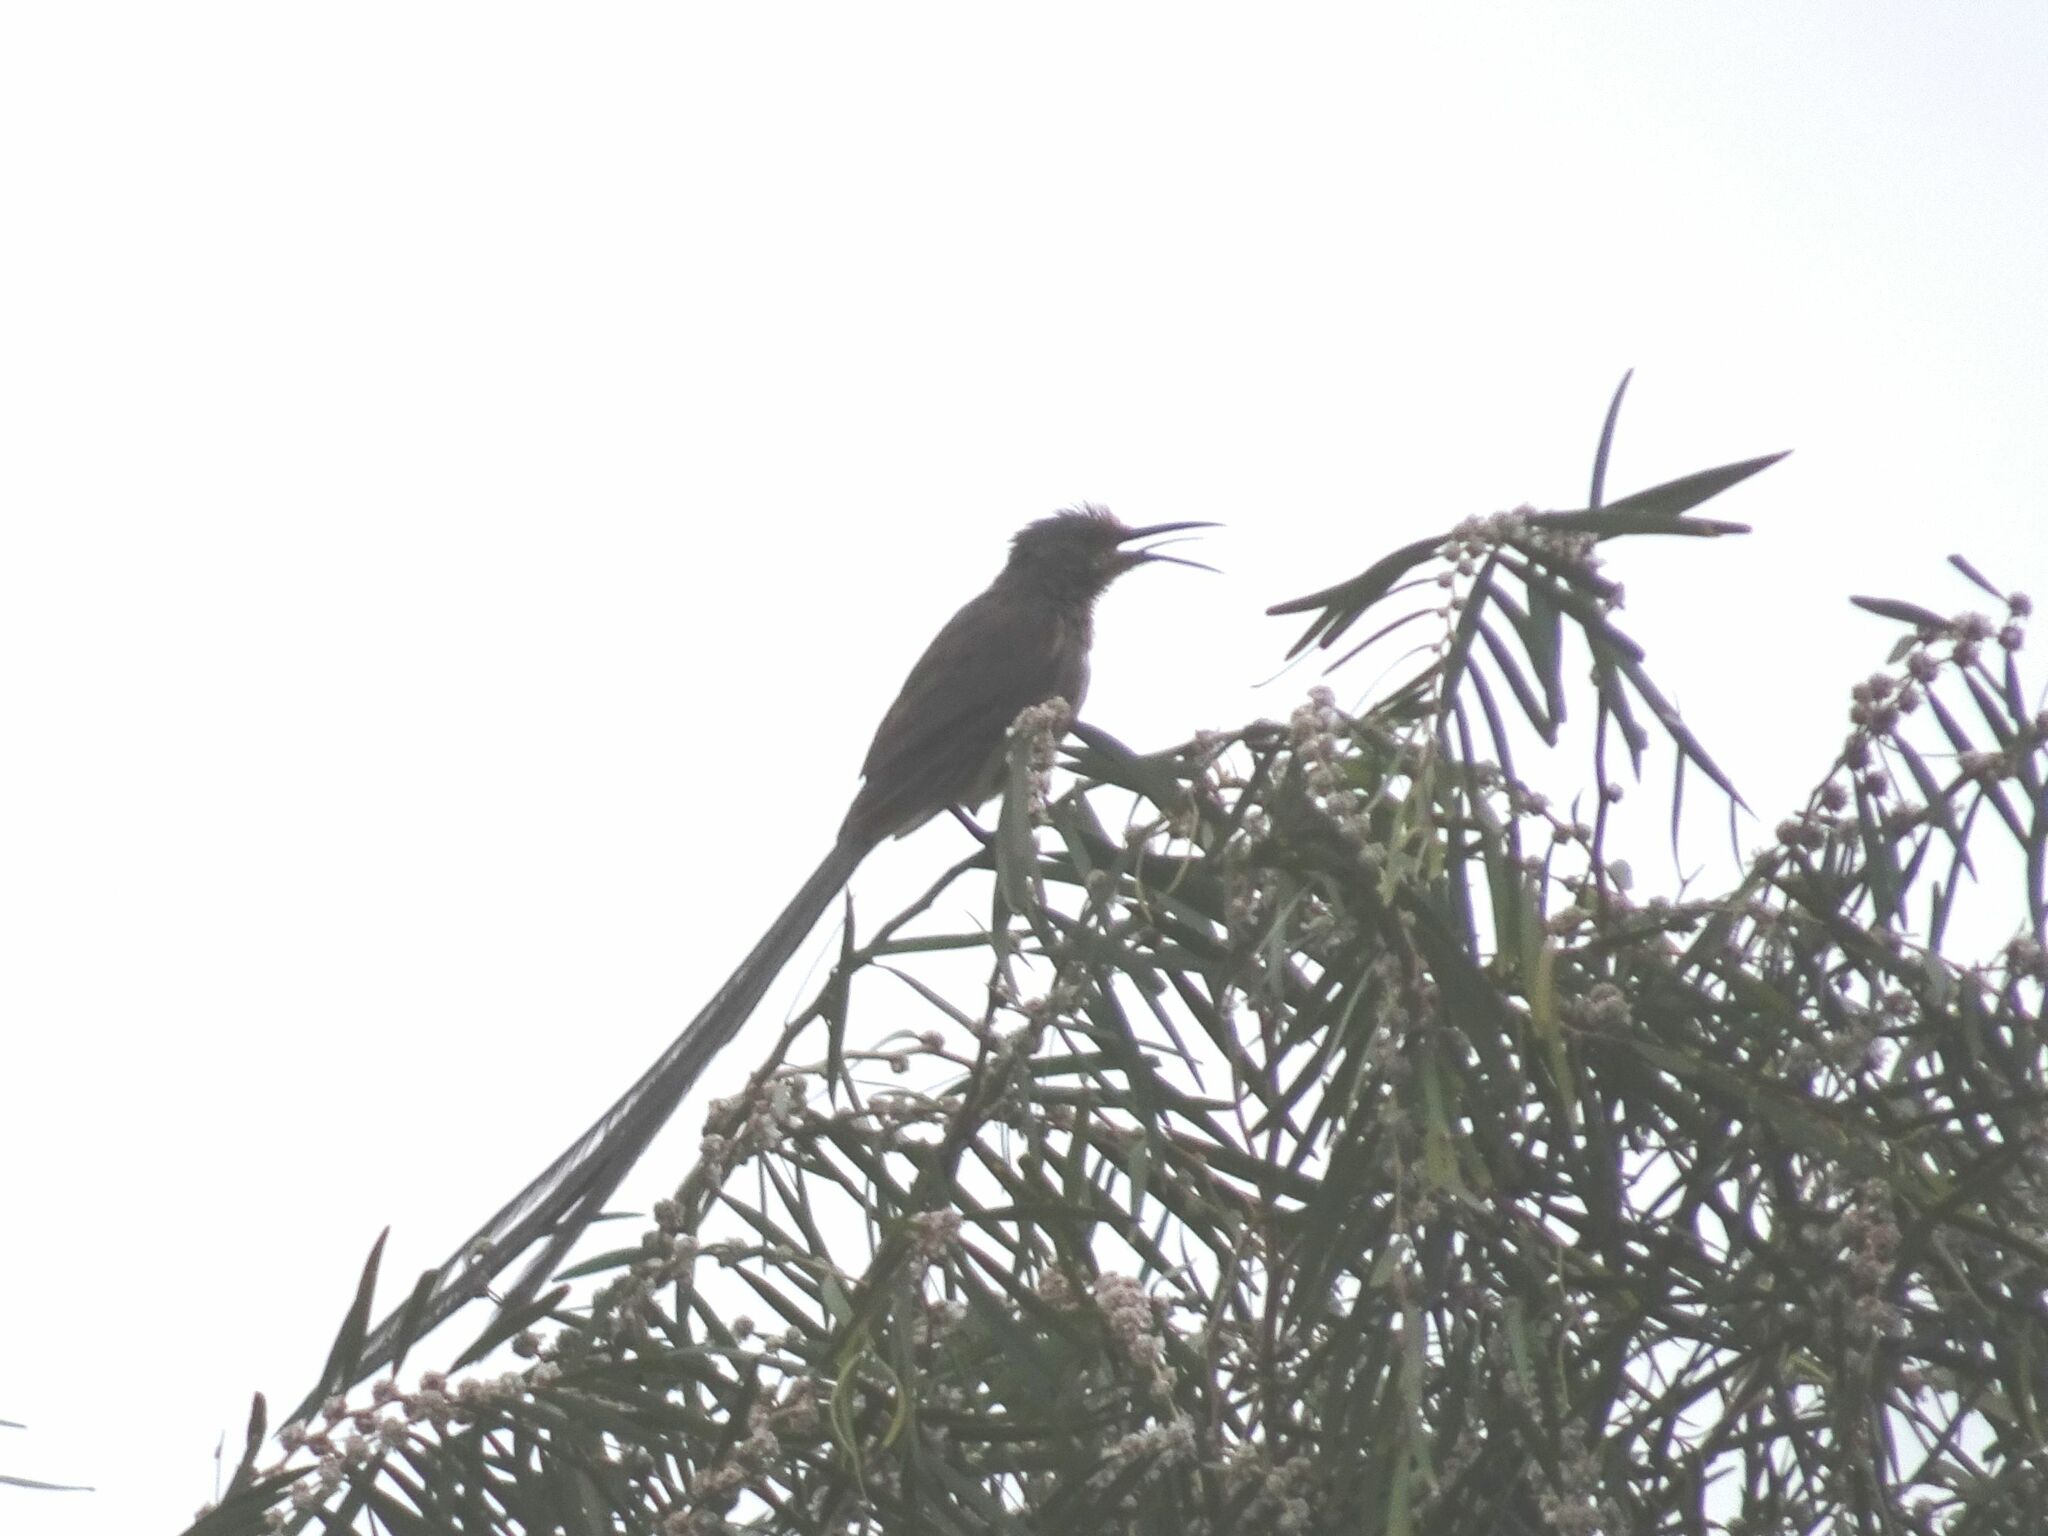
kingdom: Animalia
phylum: Chordata
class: Aves
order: Passeriformes
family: Promeropidae
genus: Promerops
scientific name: Promerops cafer
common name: Cape sugarbird
